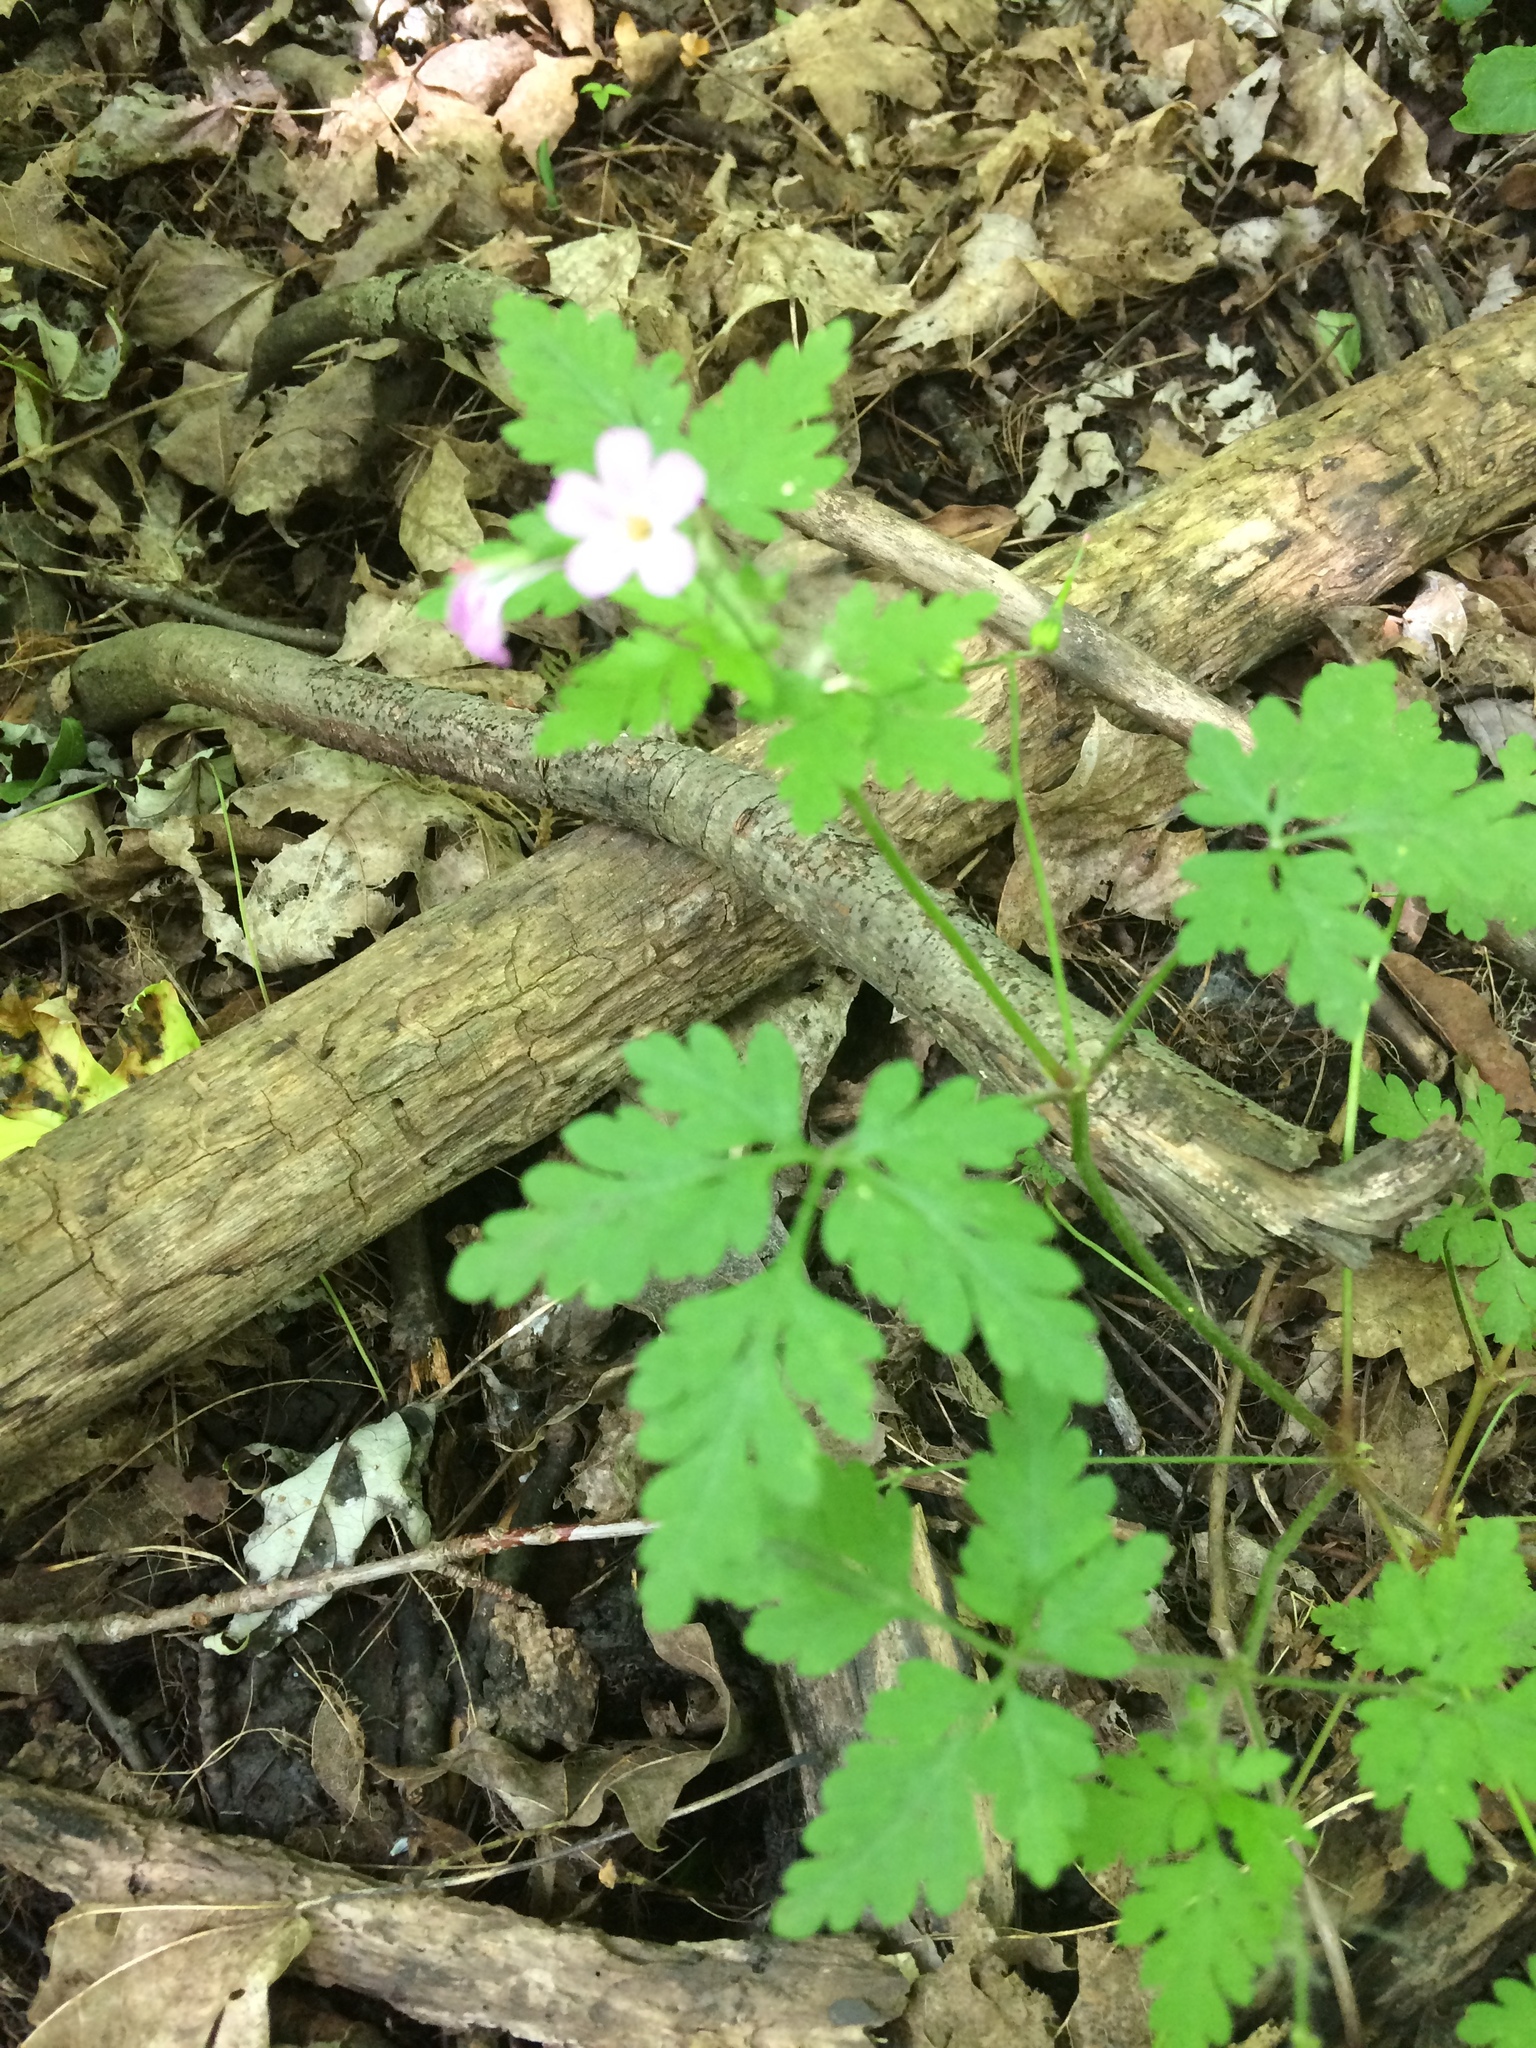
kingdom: Plantae
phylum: Tracheophyta
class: Magnoliopsida
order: Geraniales
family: Geraniaceae
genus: Geranium
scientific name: Geranium robertianum
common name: Herb-robert
